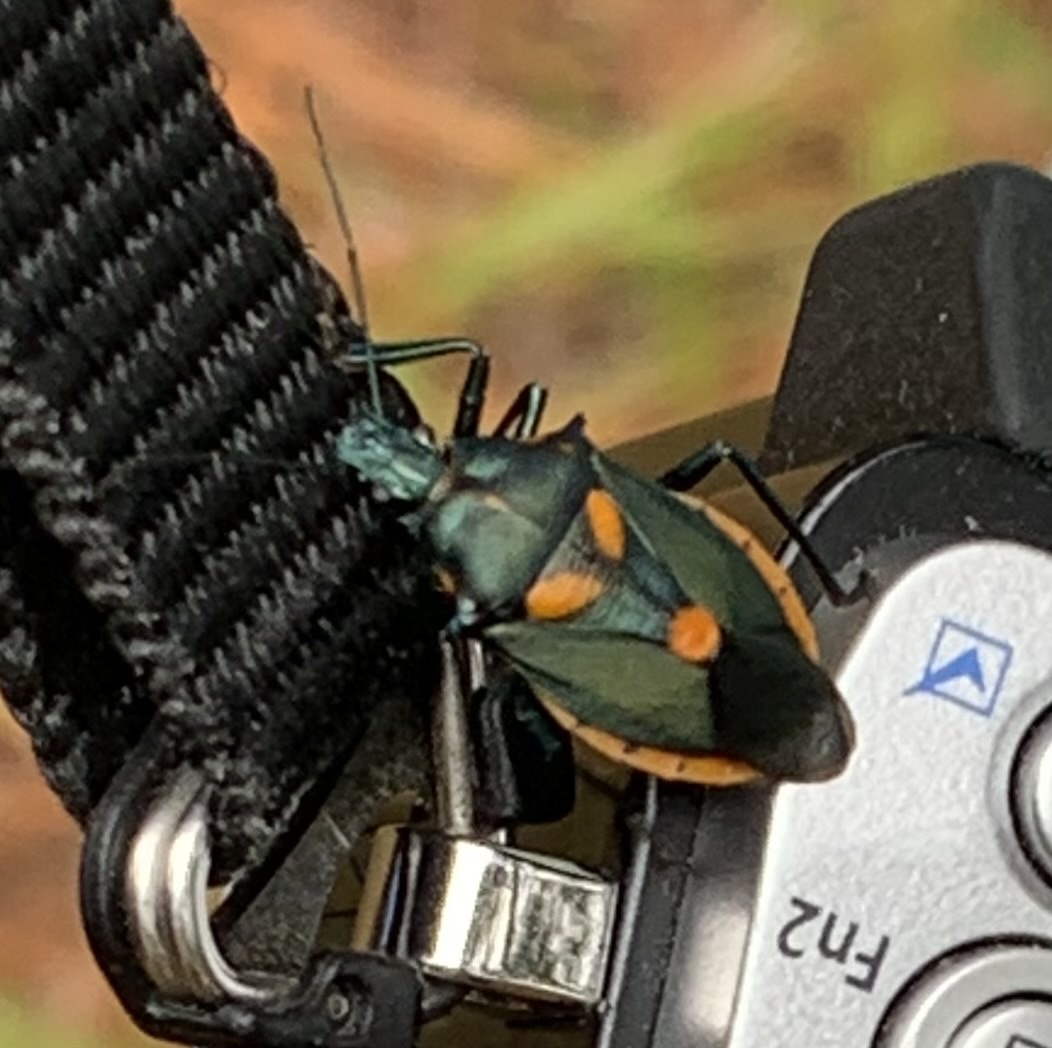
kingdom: Animalia
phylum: Arthropoda
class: Insecta
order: Hemiptera
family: Pentatomidae
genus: Euthyrhynchus
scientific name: Euthyrhynchus floridanus
